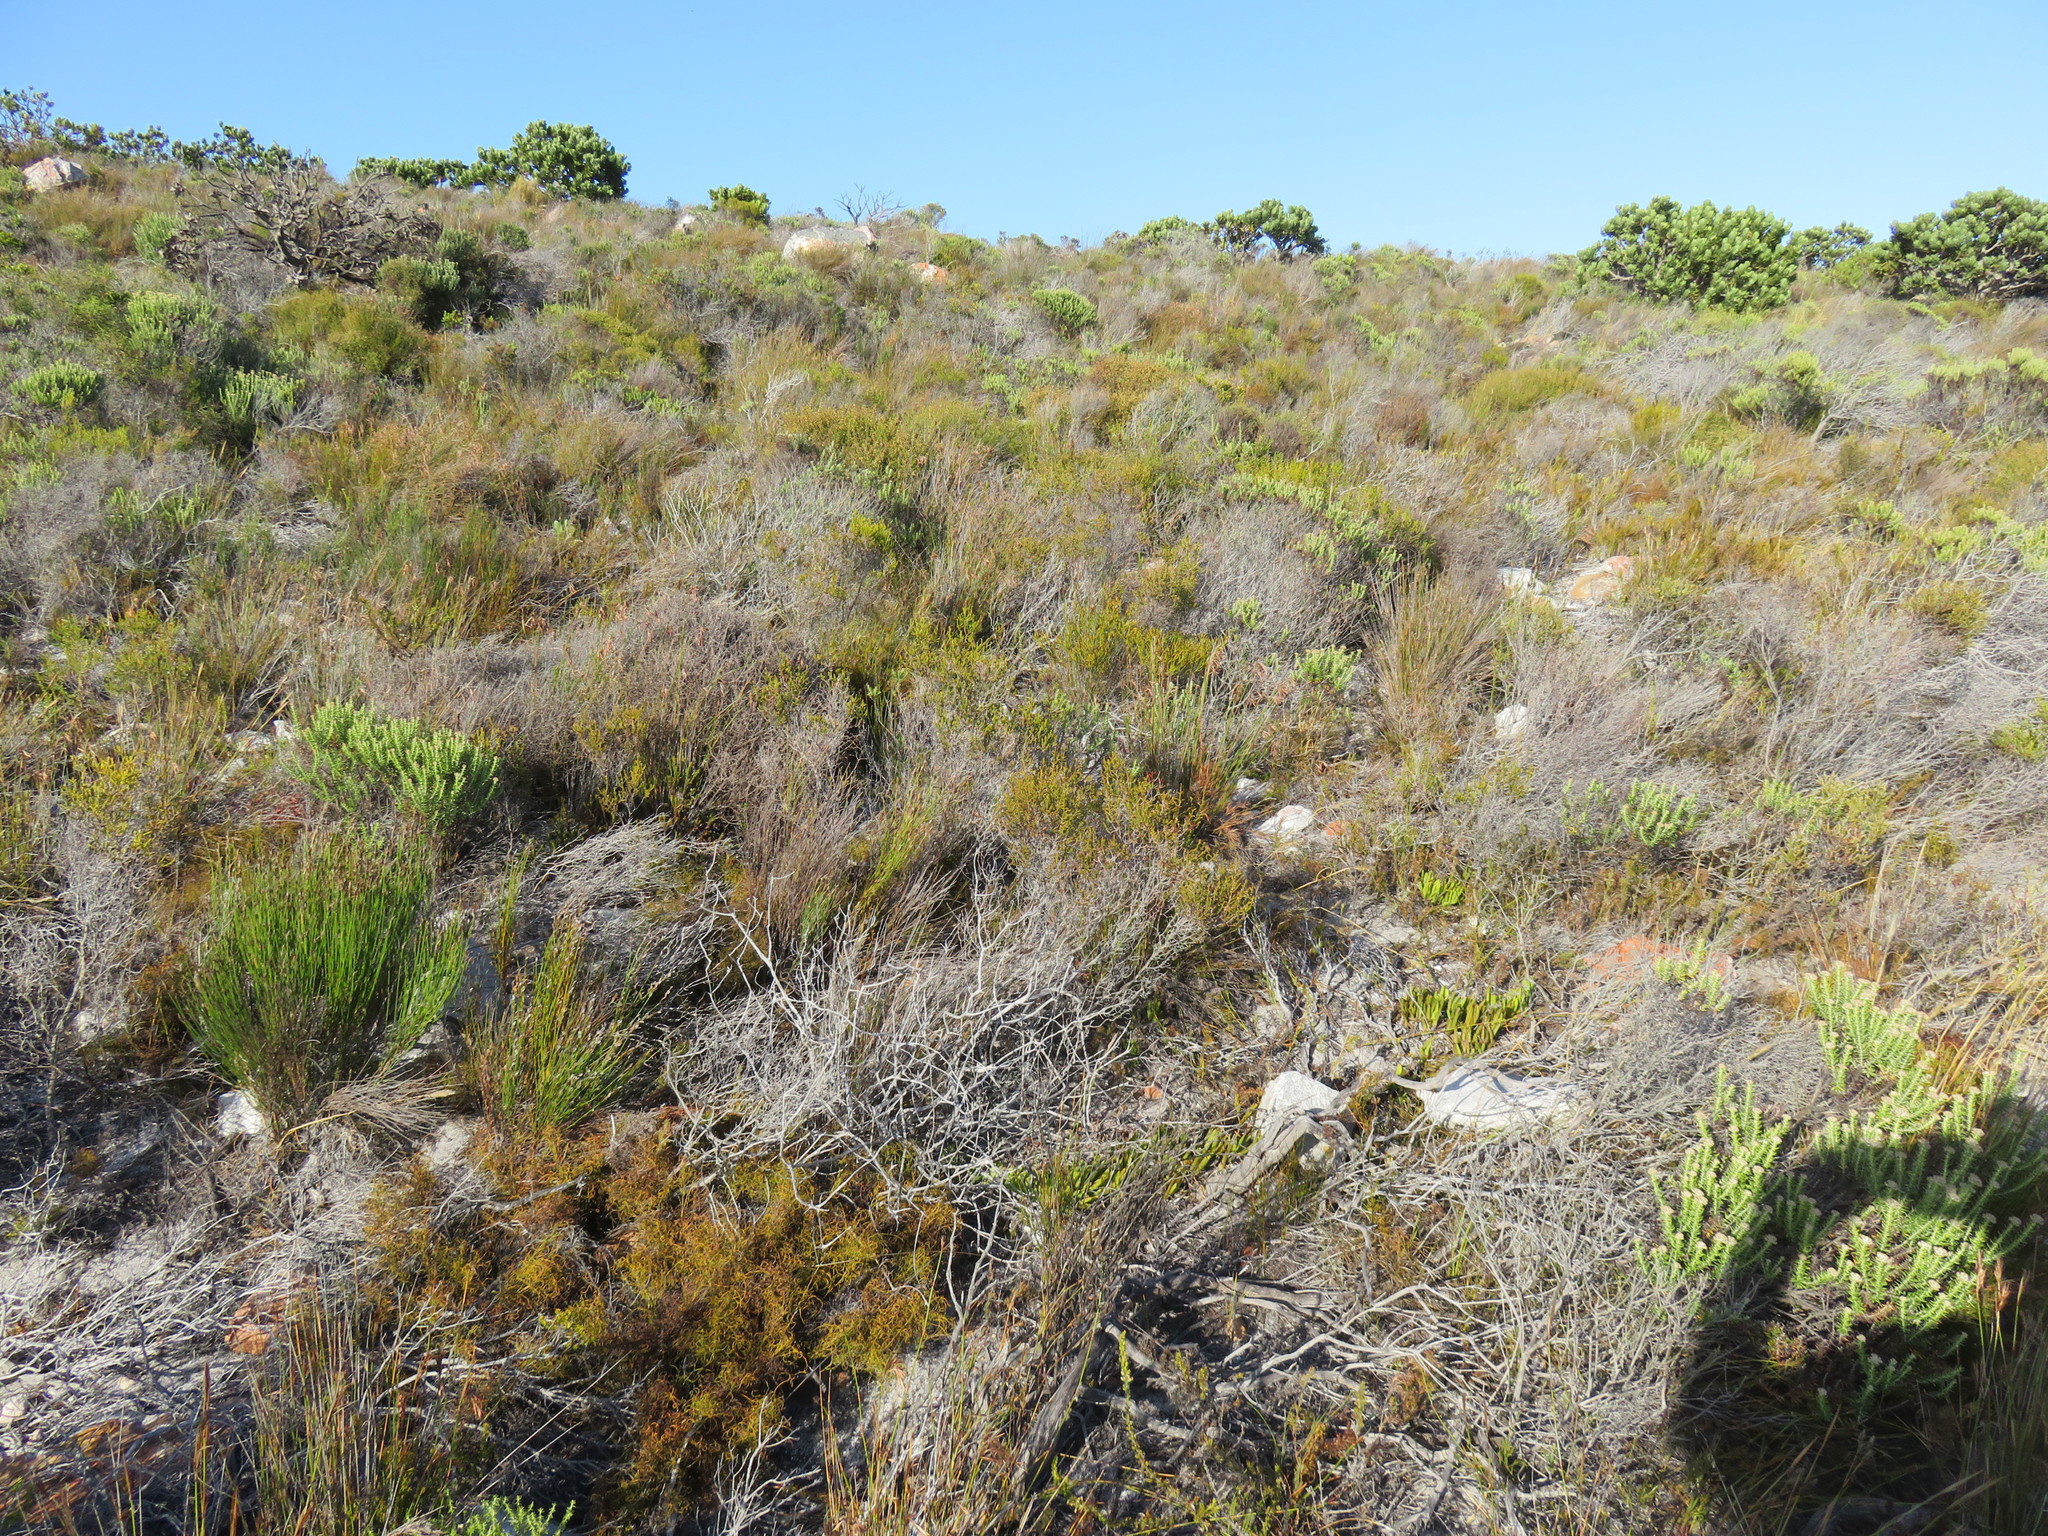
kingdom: Plantae
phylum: Tracheophyta
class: Magnoliopsida
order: Asterales
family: Asteraceae
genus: Myrovernix
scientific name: Myrovernix scaber
